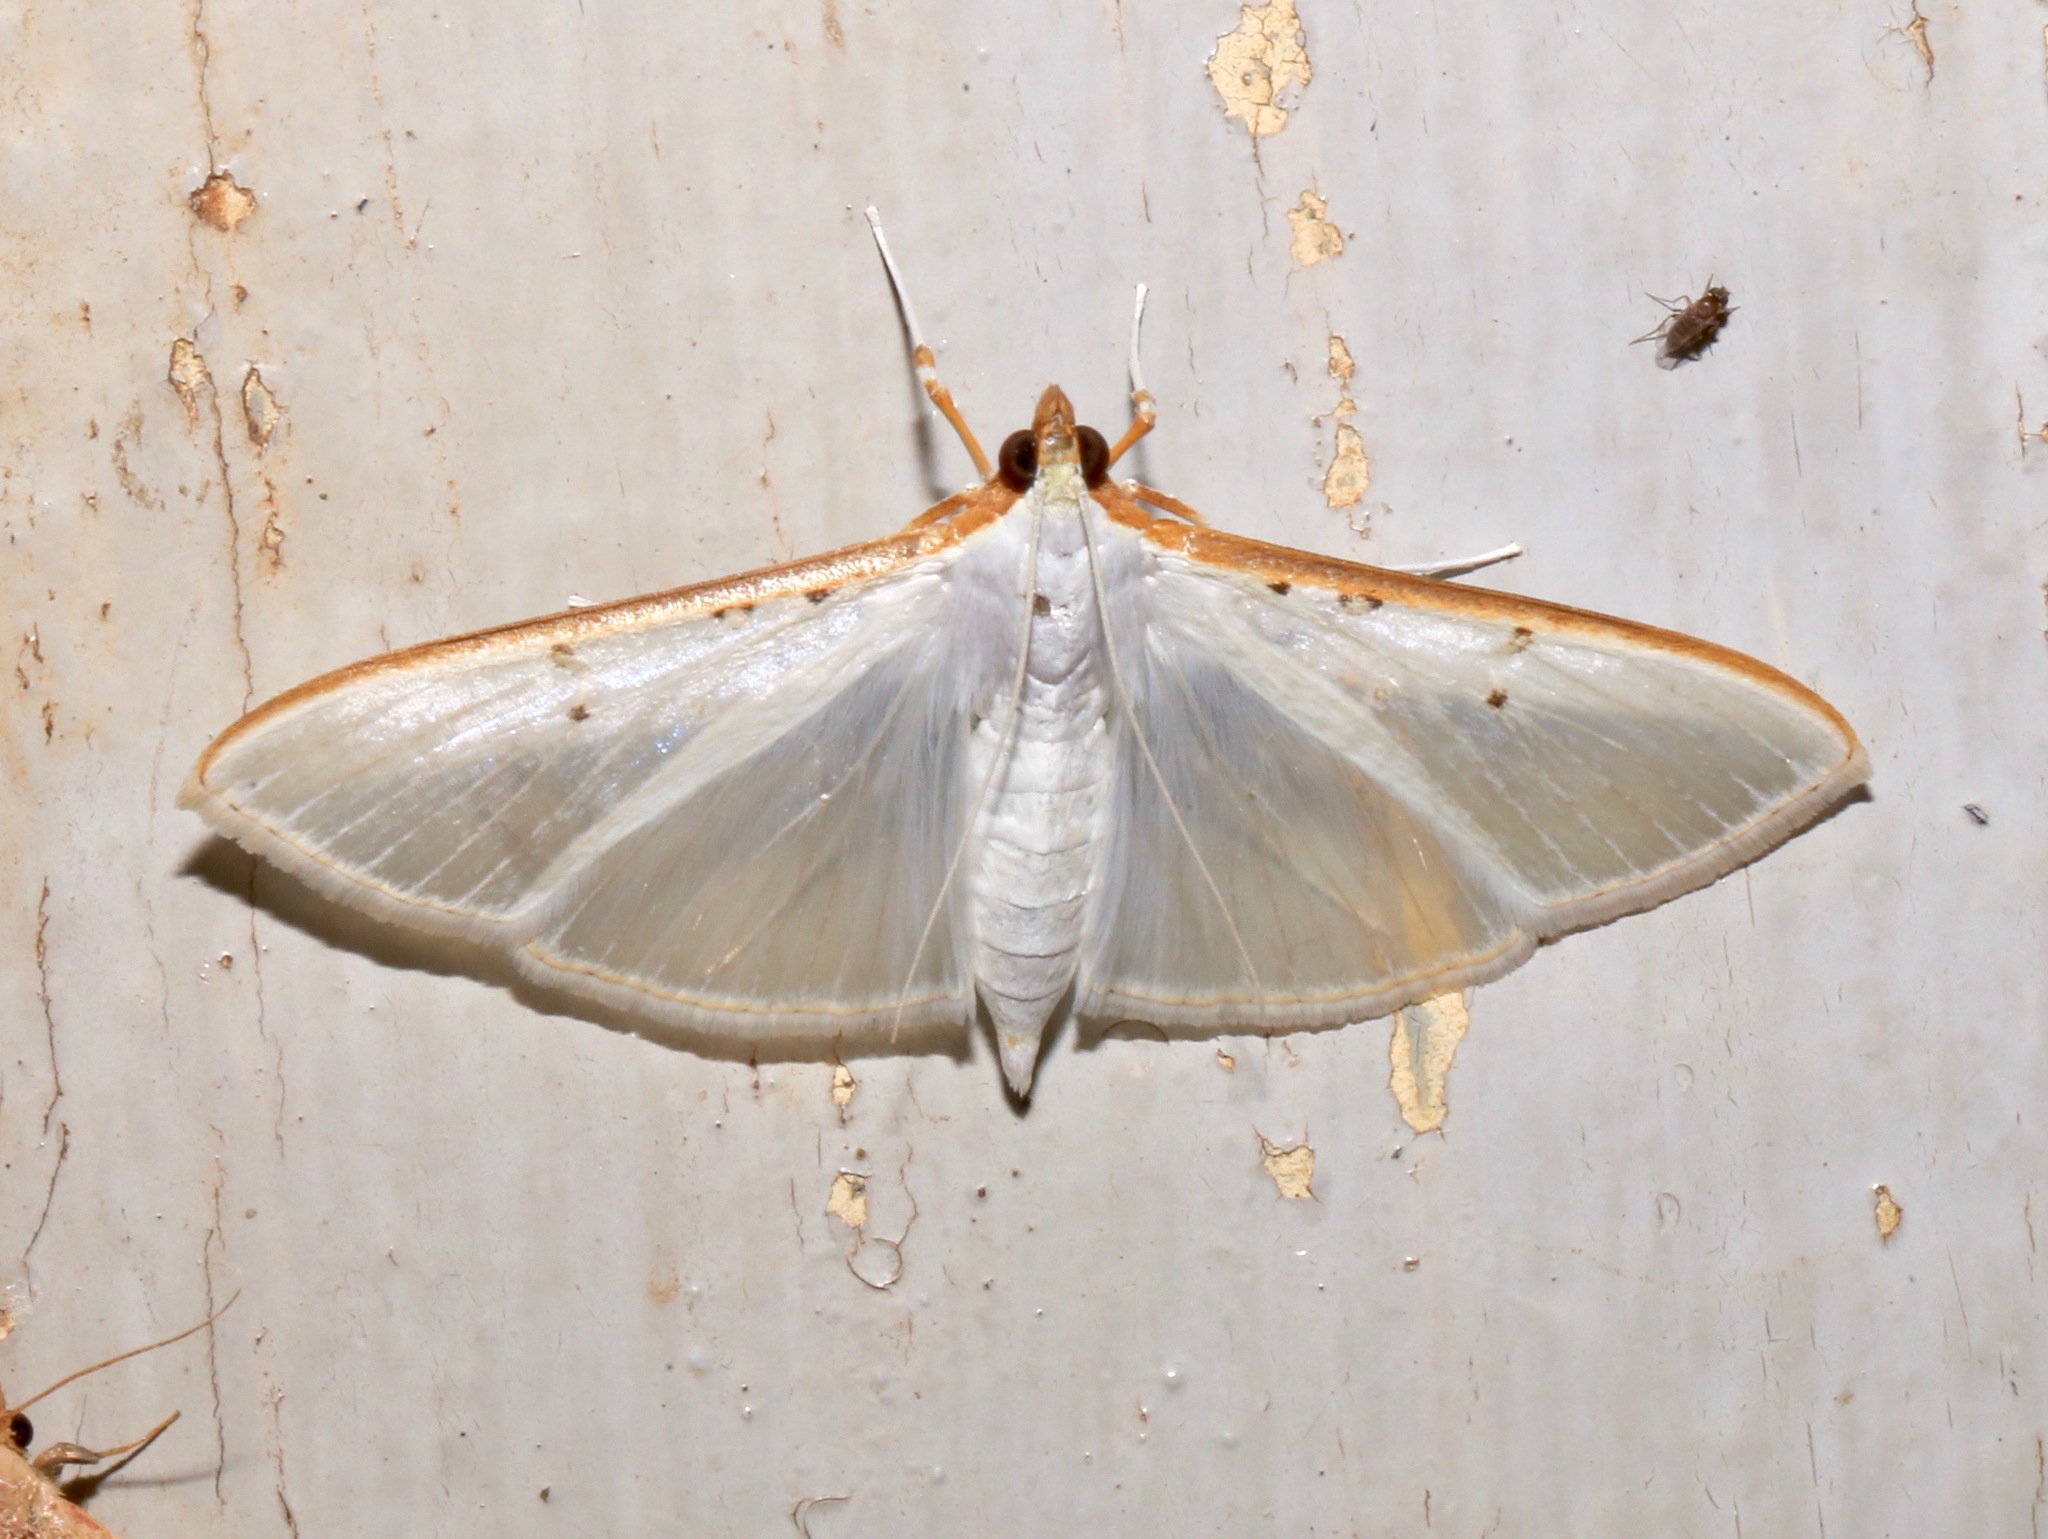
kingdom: Animalia
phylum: Arthropoda
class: Insecta
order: Lepidoptera
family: Crambidae
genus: Palpita
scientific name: Palpita vitrealis
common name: Olive-tree pearl
